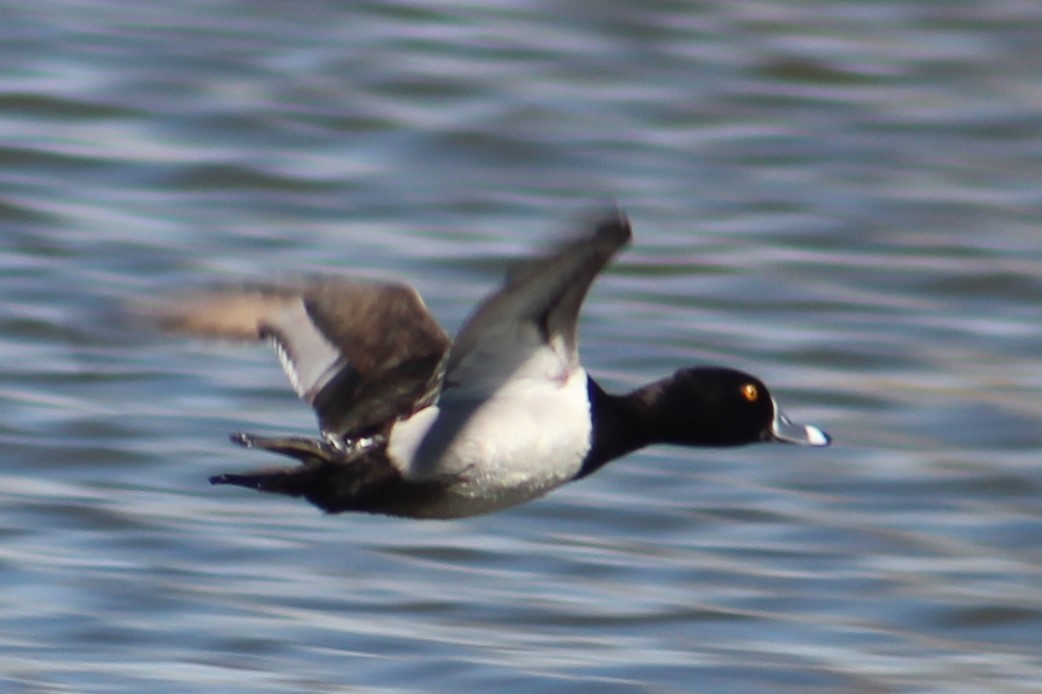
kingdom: Animalia
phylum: Chordata
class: Aves
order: Anseriformes
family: Anatidae
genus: Aythya
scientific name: Aythya collaris
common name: Ring-necked duck
